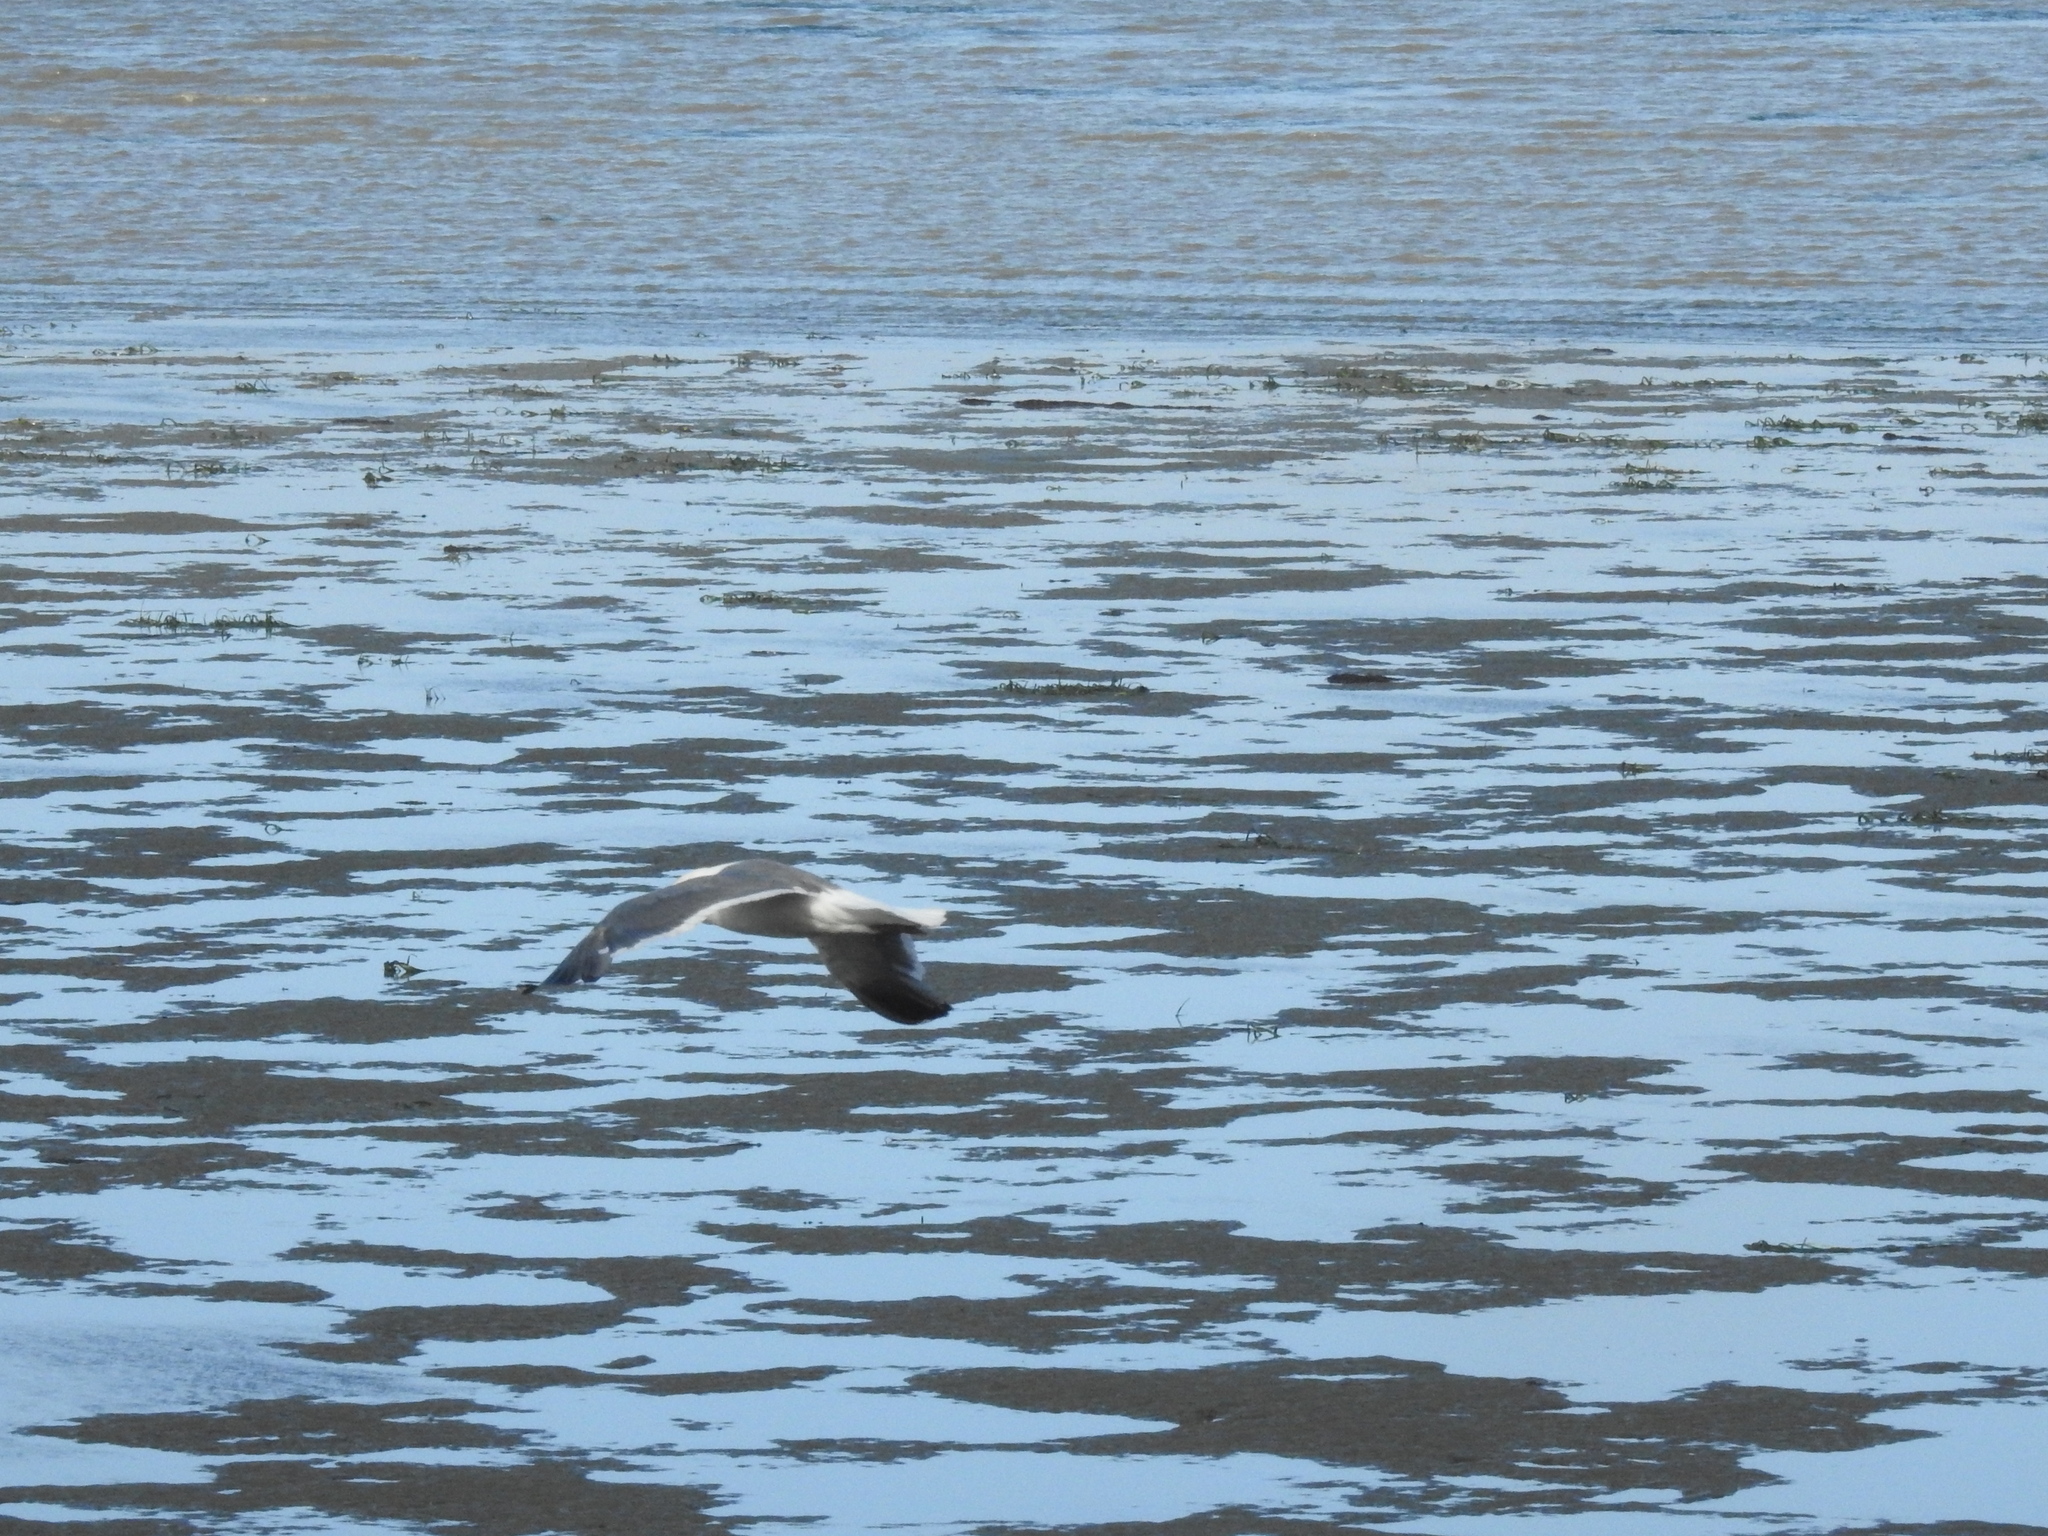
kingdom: Animalia
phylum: Chordata
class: Aves
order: Charadriiformes
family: Laridae
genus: Larus
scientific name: Larus californicus
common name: California gull
